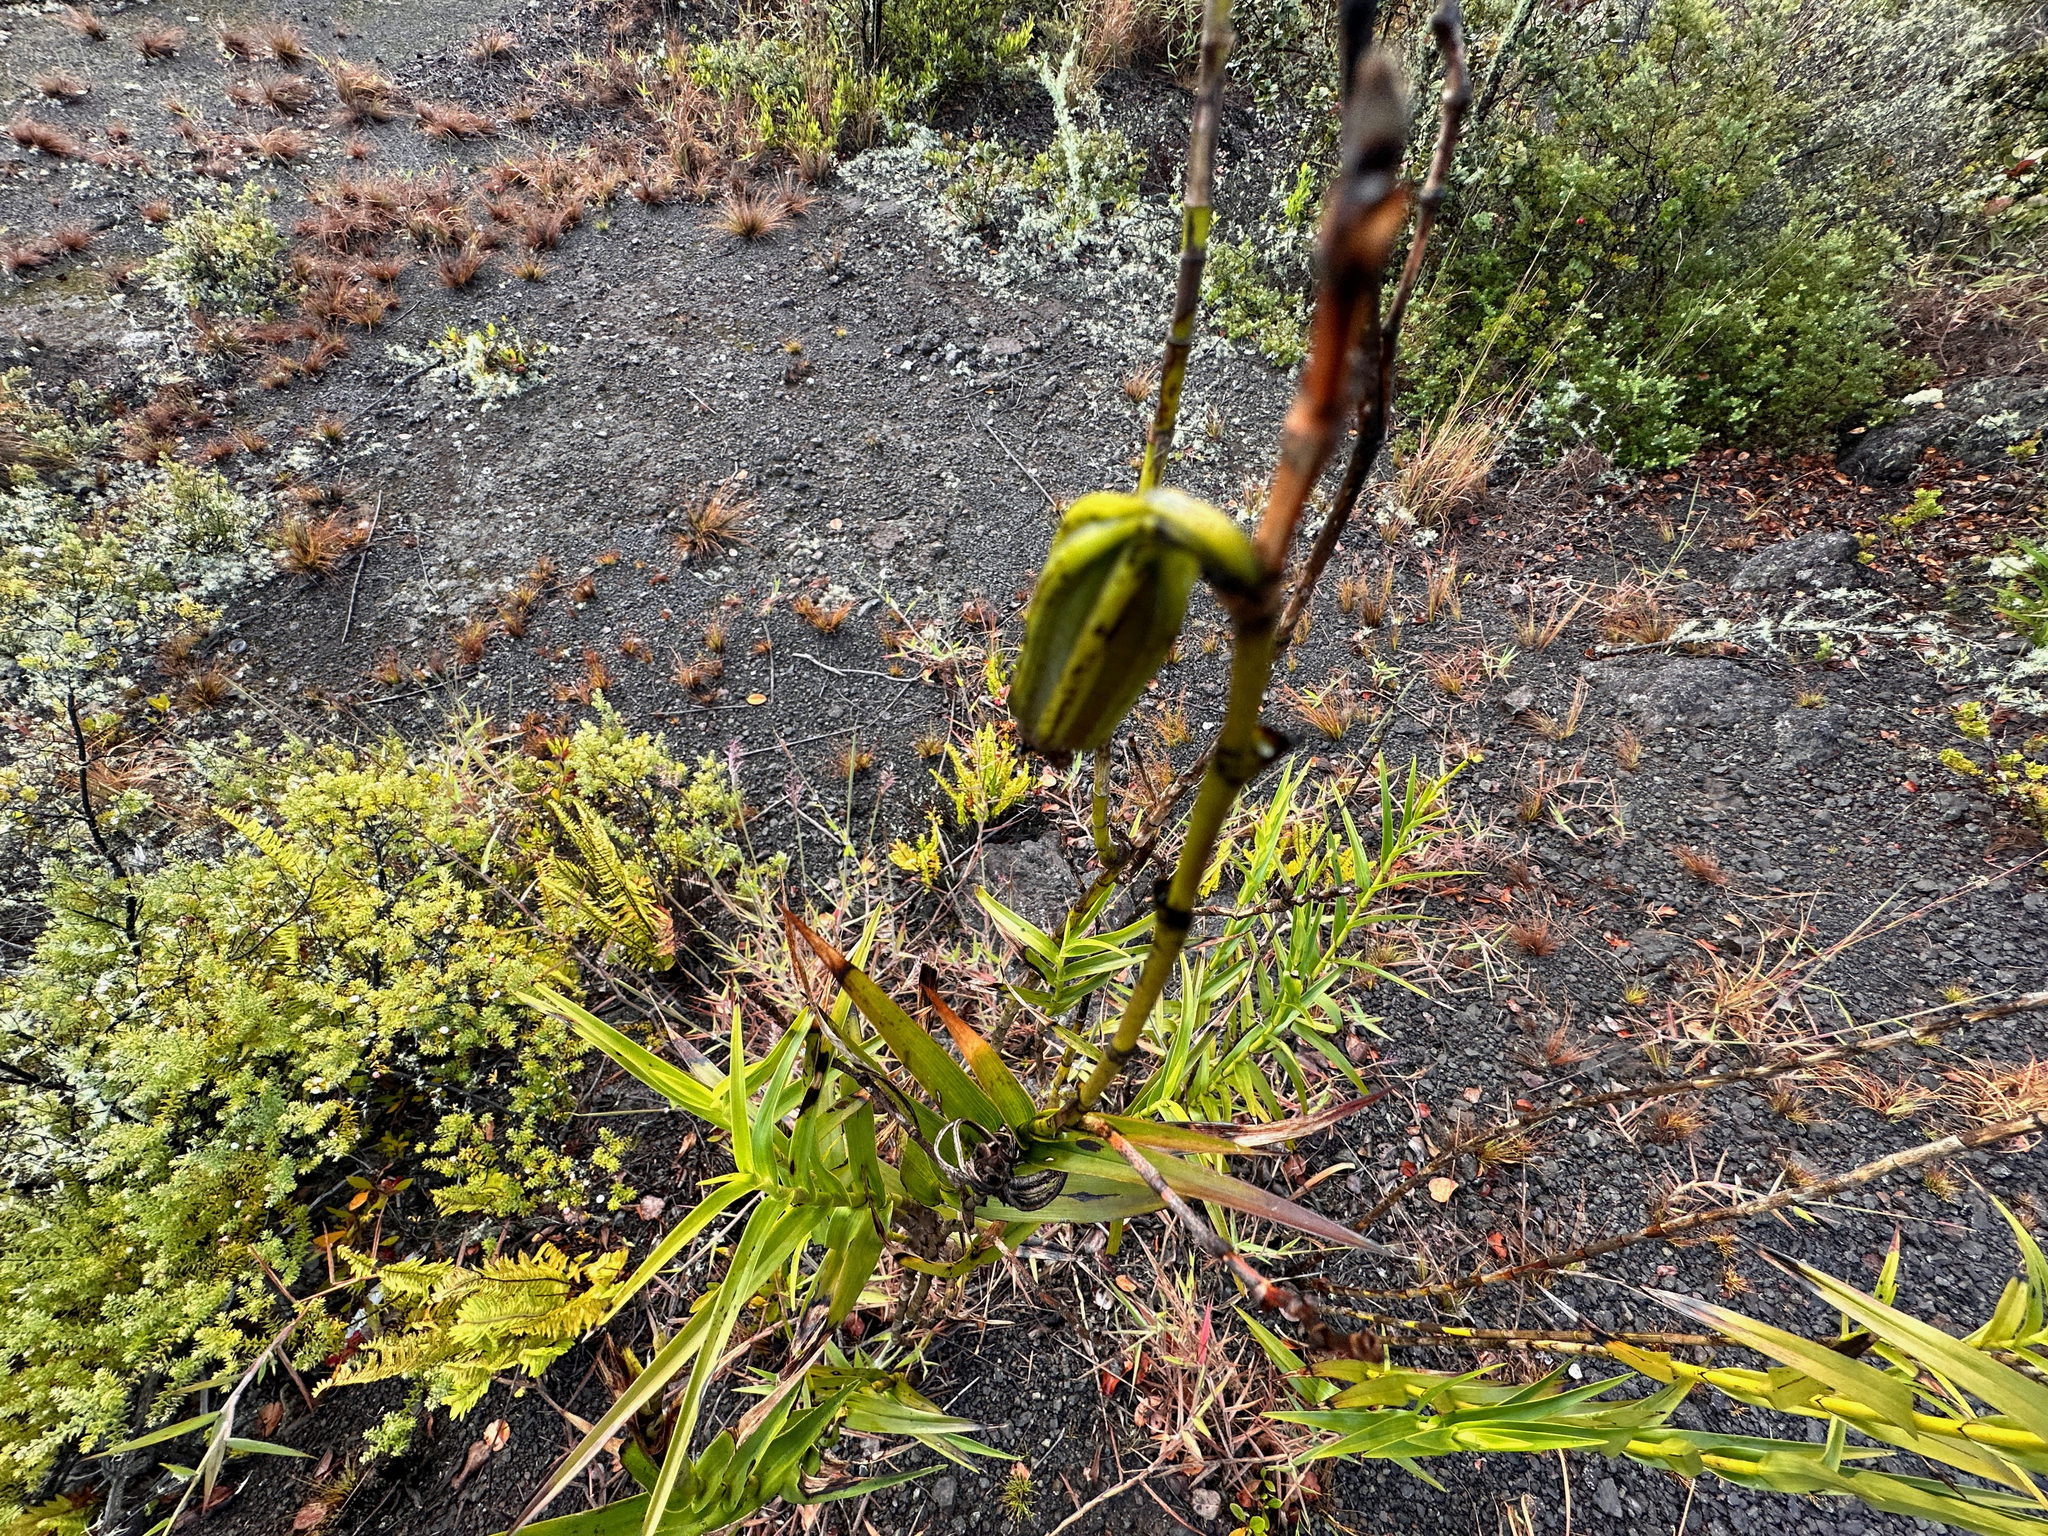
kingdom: Plantae
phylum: Tracheophyta
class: Liliopsida
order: Asparagales
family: Orchidaceae
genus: Arundina
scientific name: Arundina graminifolia
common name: Bamboo orchid
